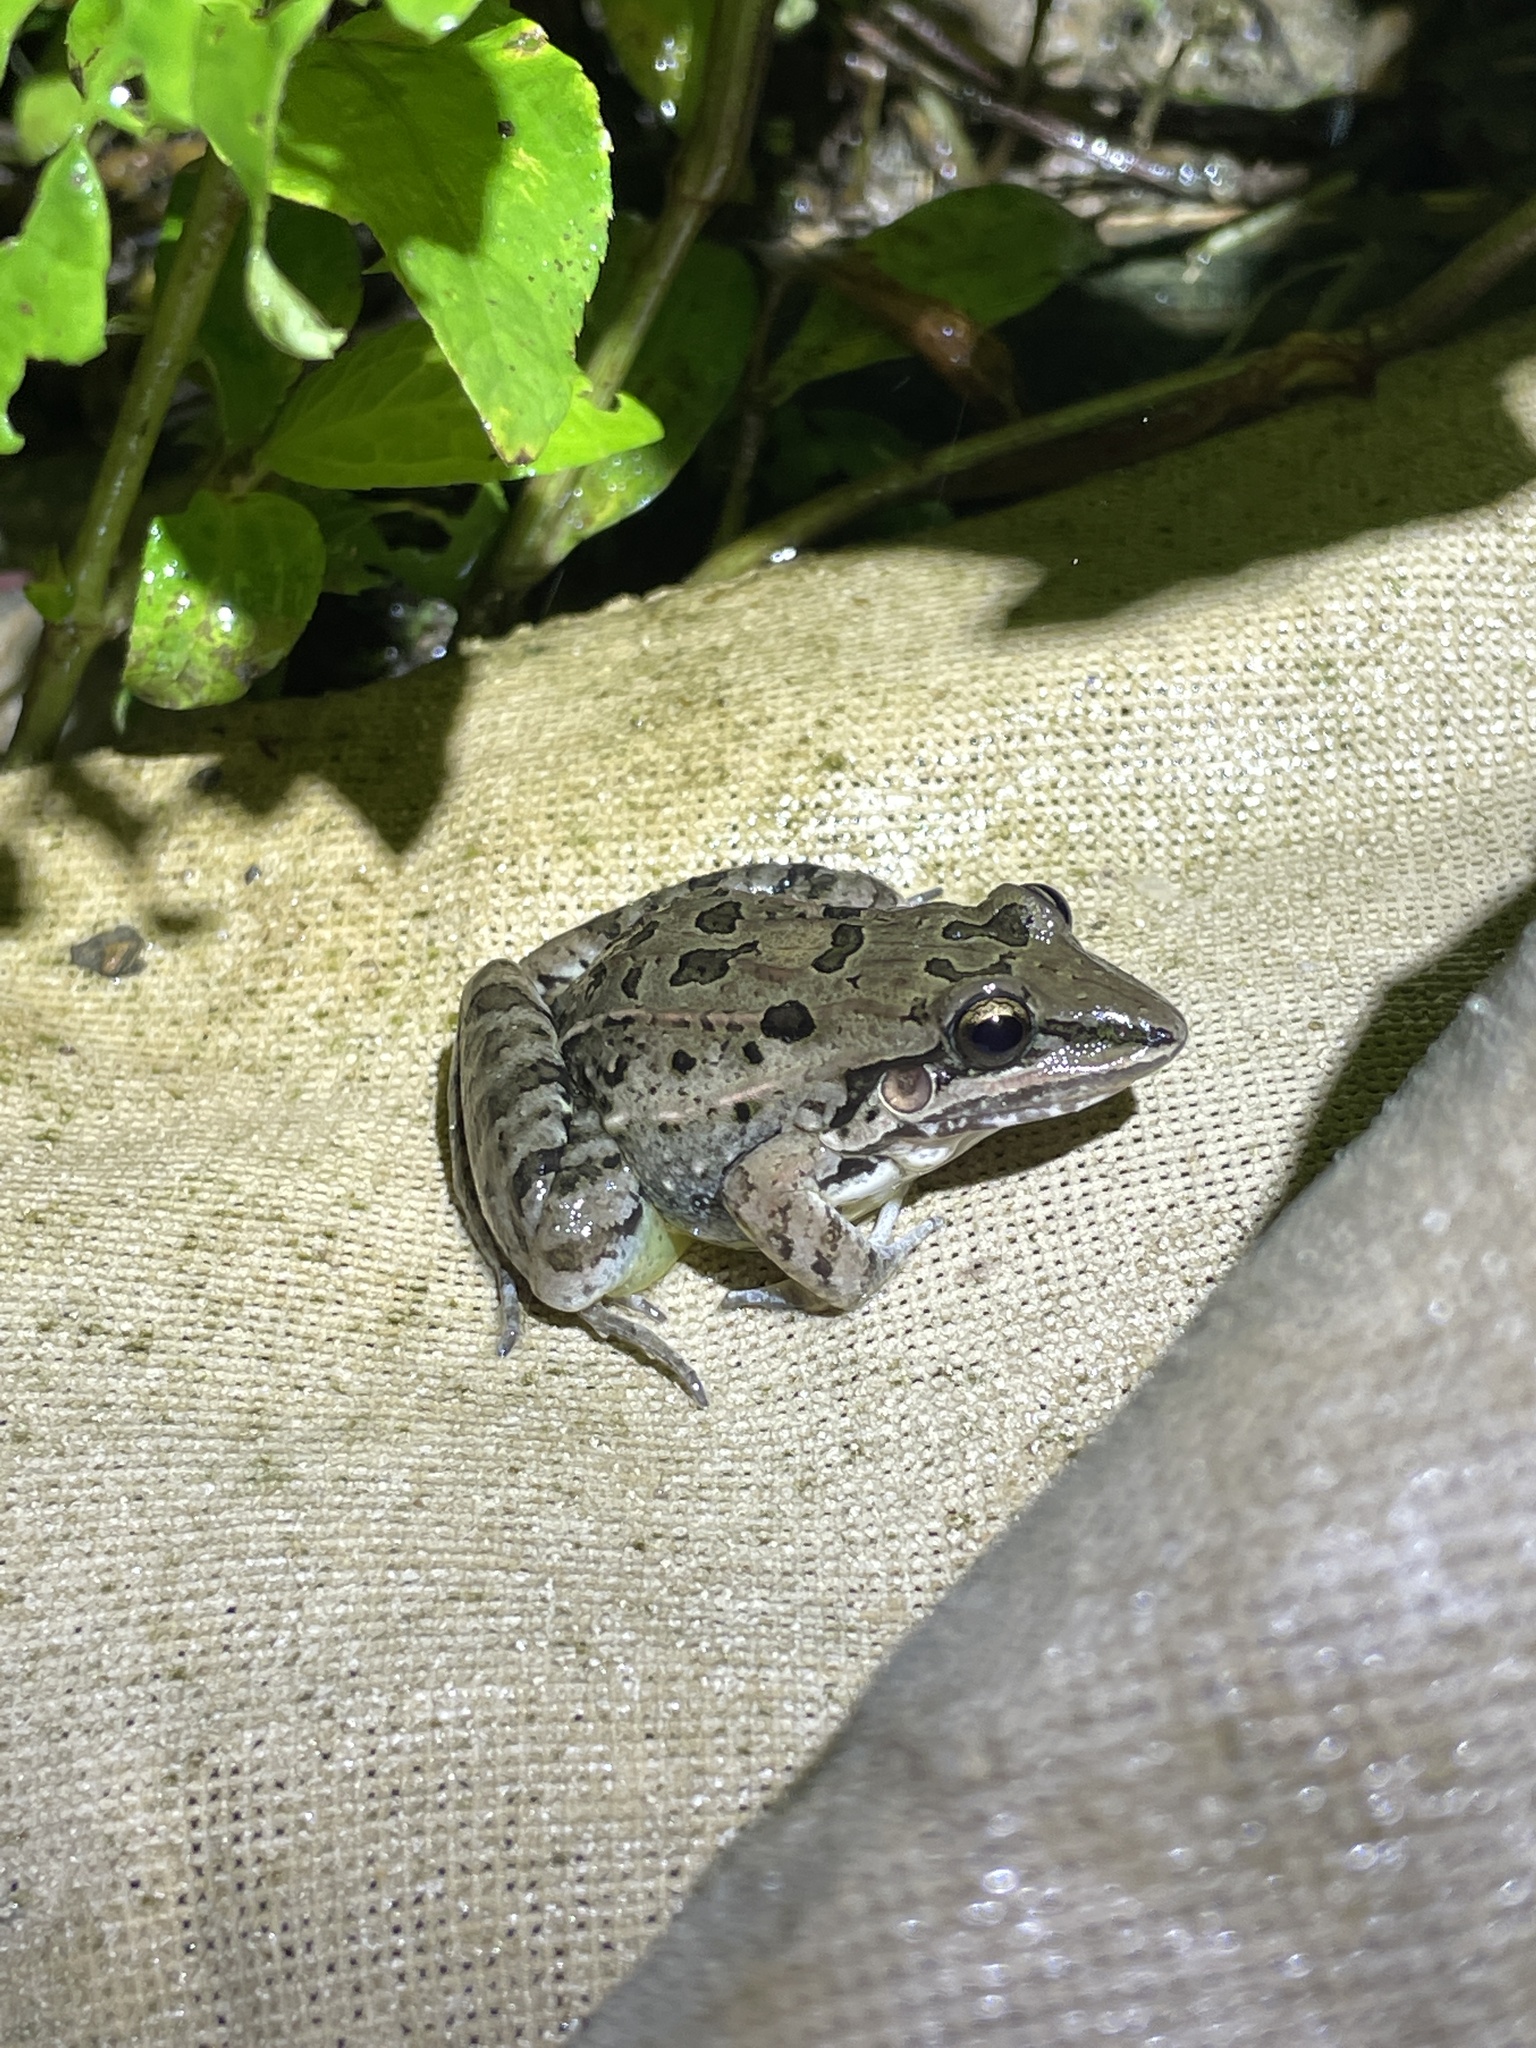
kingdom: Animalia
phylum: Chordata
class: Amphibia
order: Anura
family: Leptodactylidae
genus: Leptodactylus
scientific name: Leptodactylus fuscus
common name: Rufous frog
